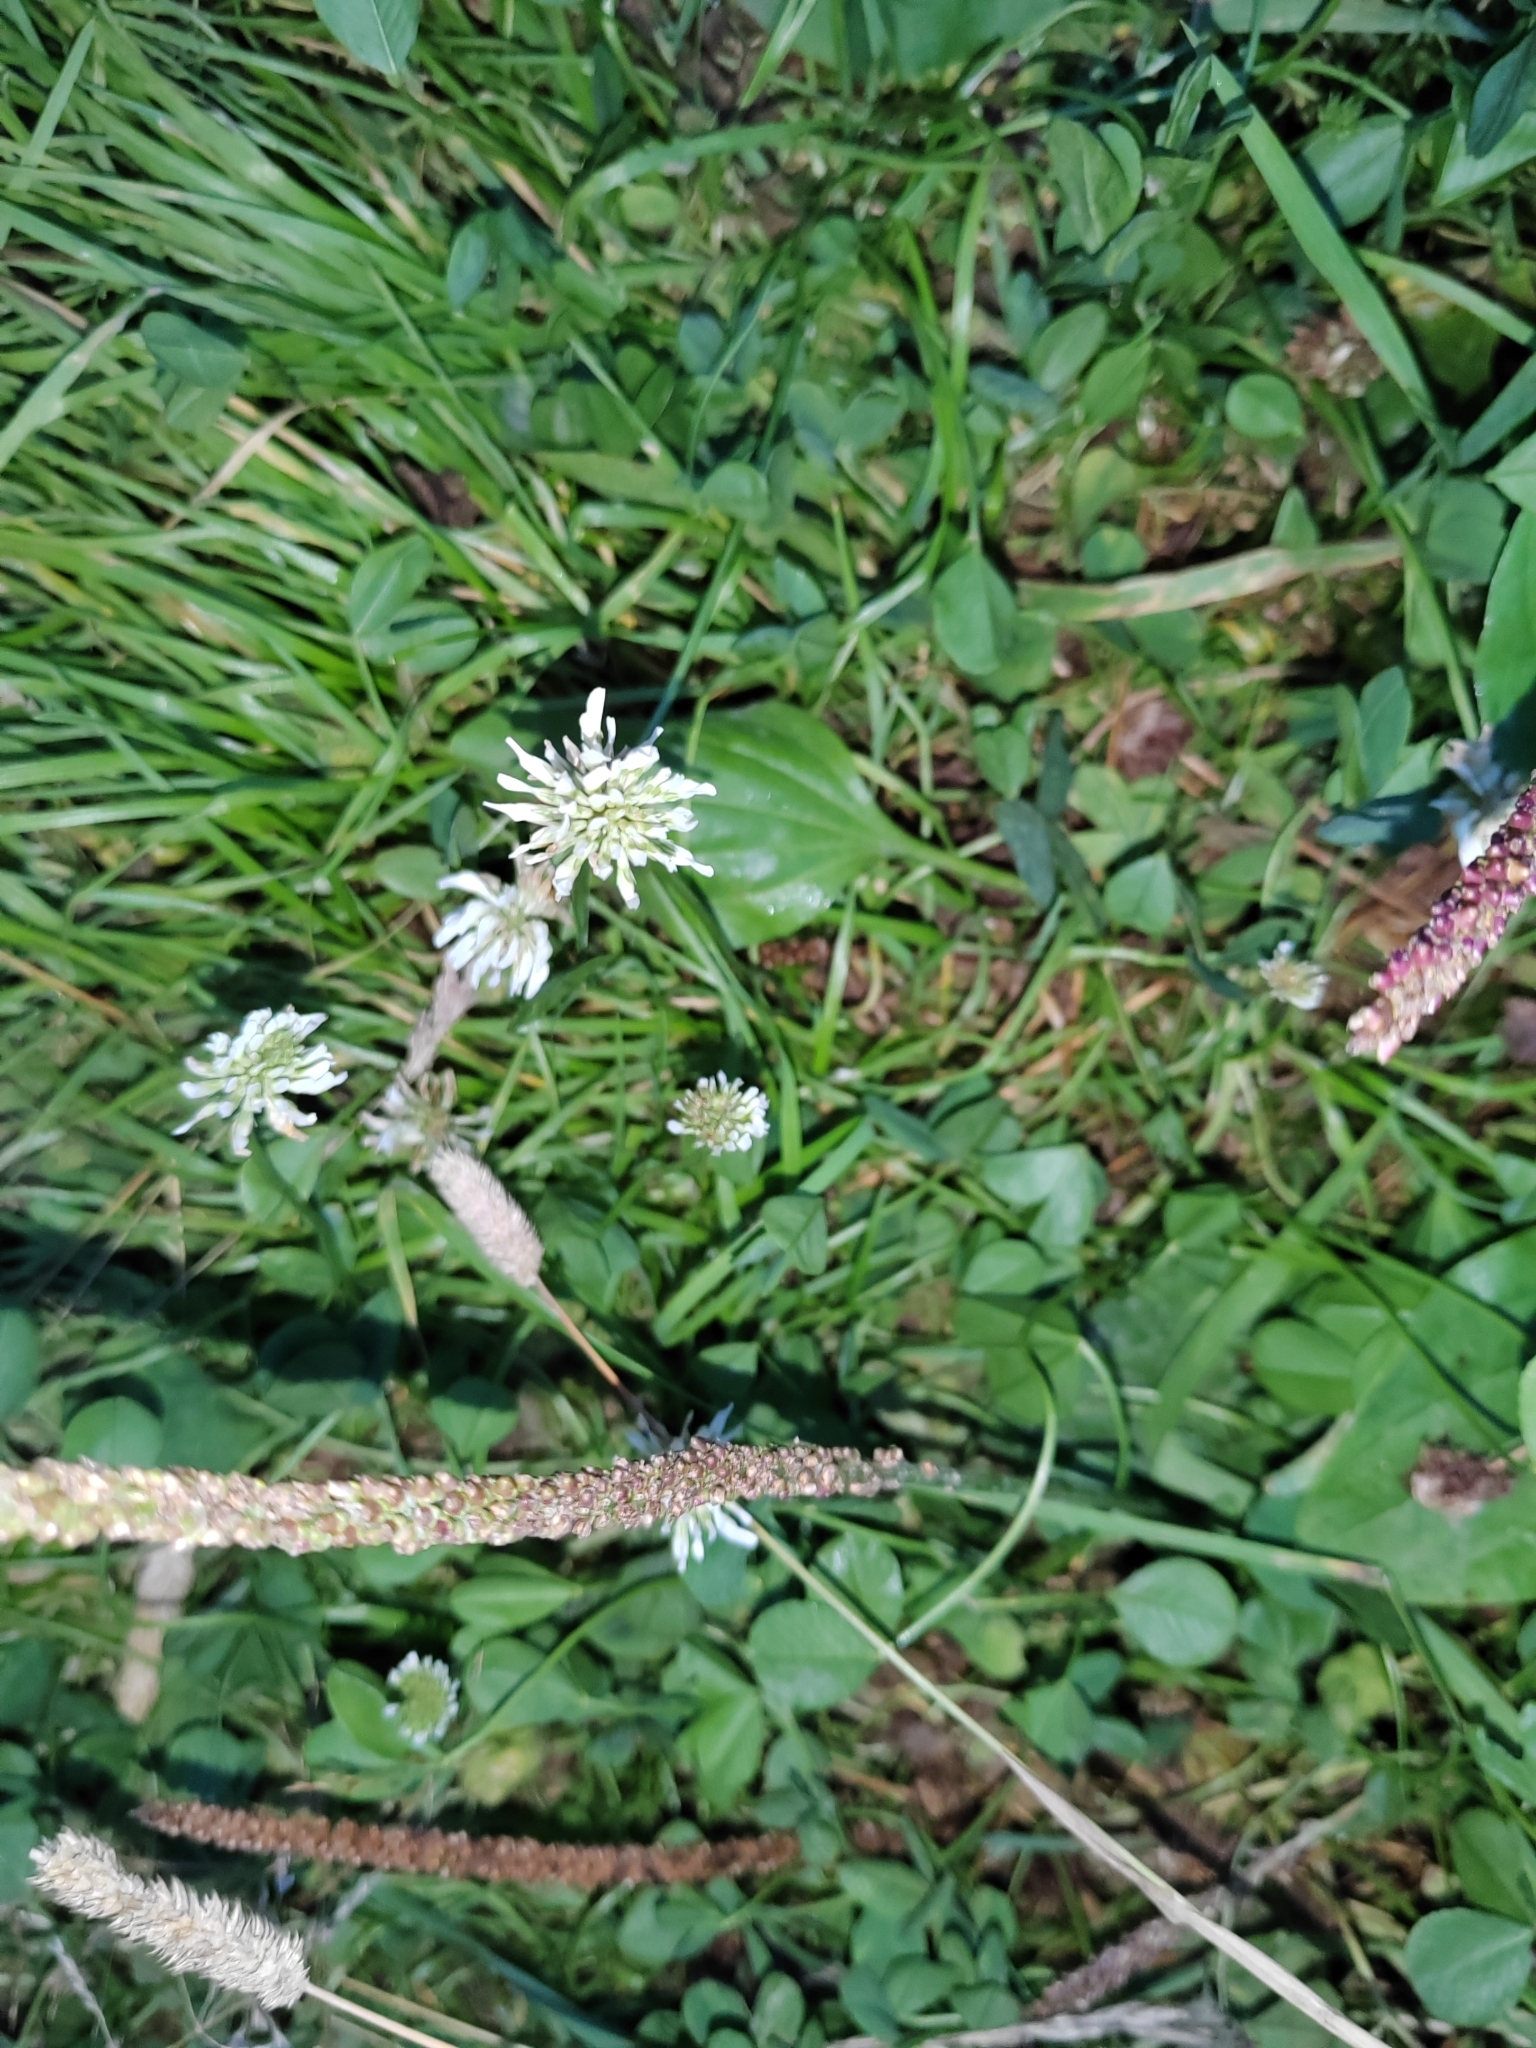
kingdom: Plantae
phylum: Tracheophyta
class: Magnoliopsida
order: Fabales
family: Fabaceae
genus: Trifolium
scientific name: Trifolium repens
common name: White clover
